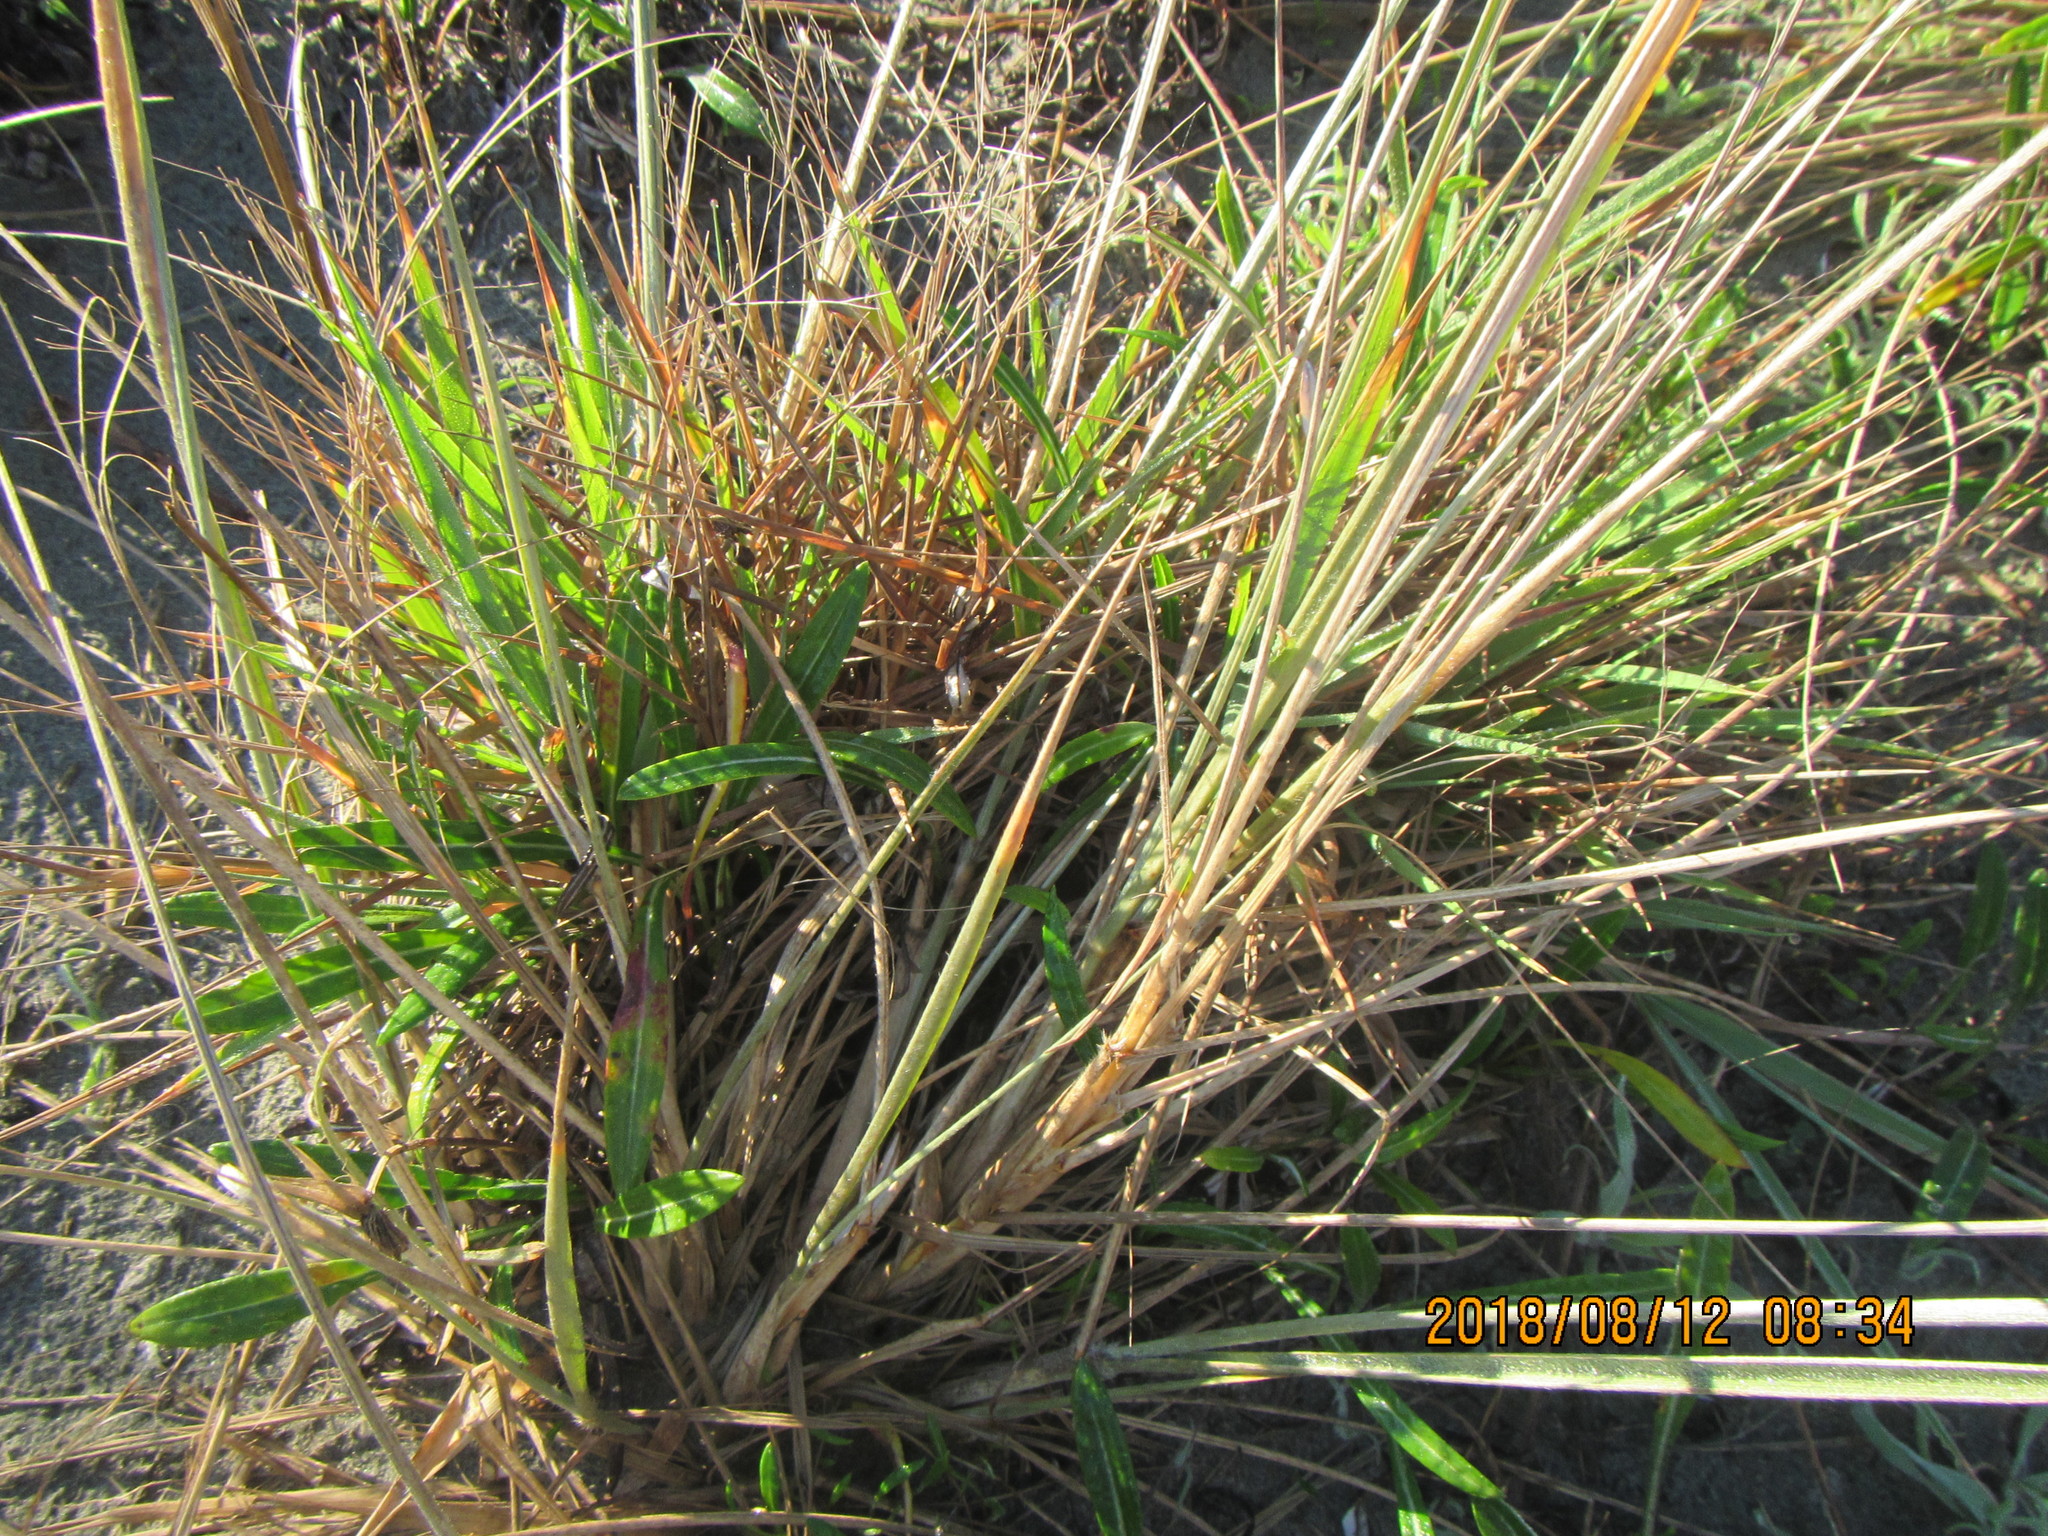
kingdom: Plantae
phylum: Tracheophyta
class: Liliopsida
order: Poales
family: Poaceae
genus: Lachnagrostis
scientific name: Lachnagrostis billardierei
